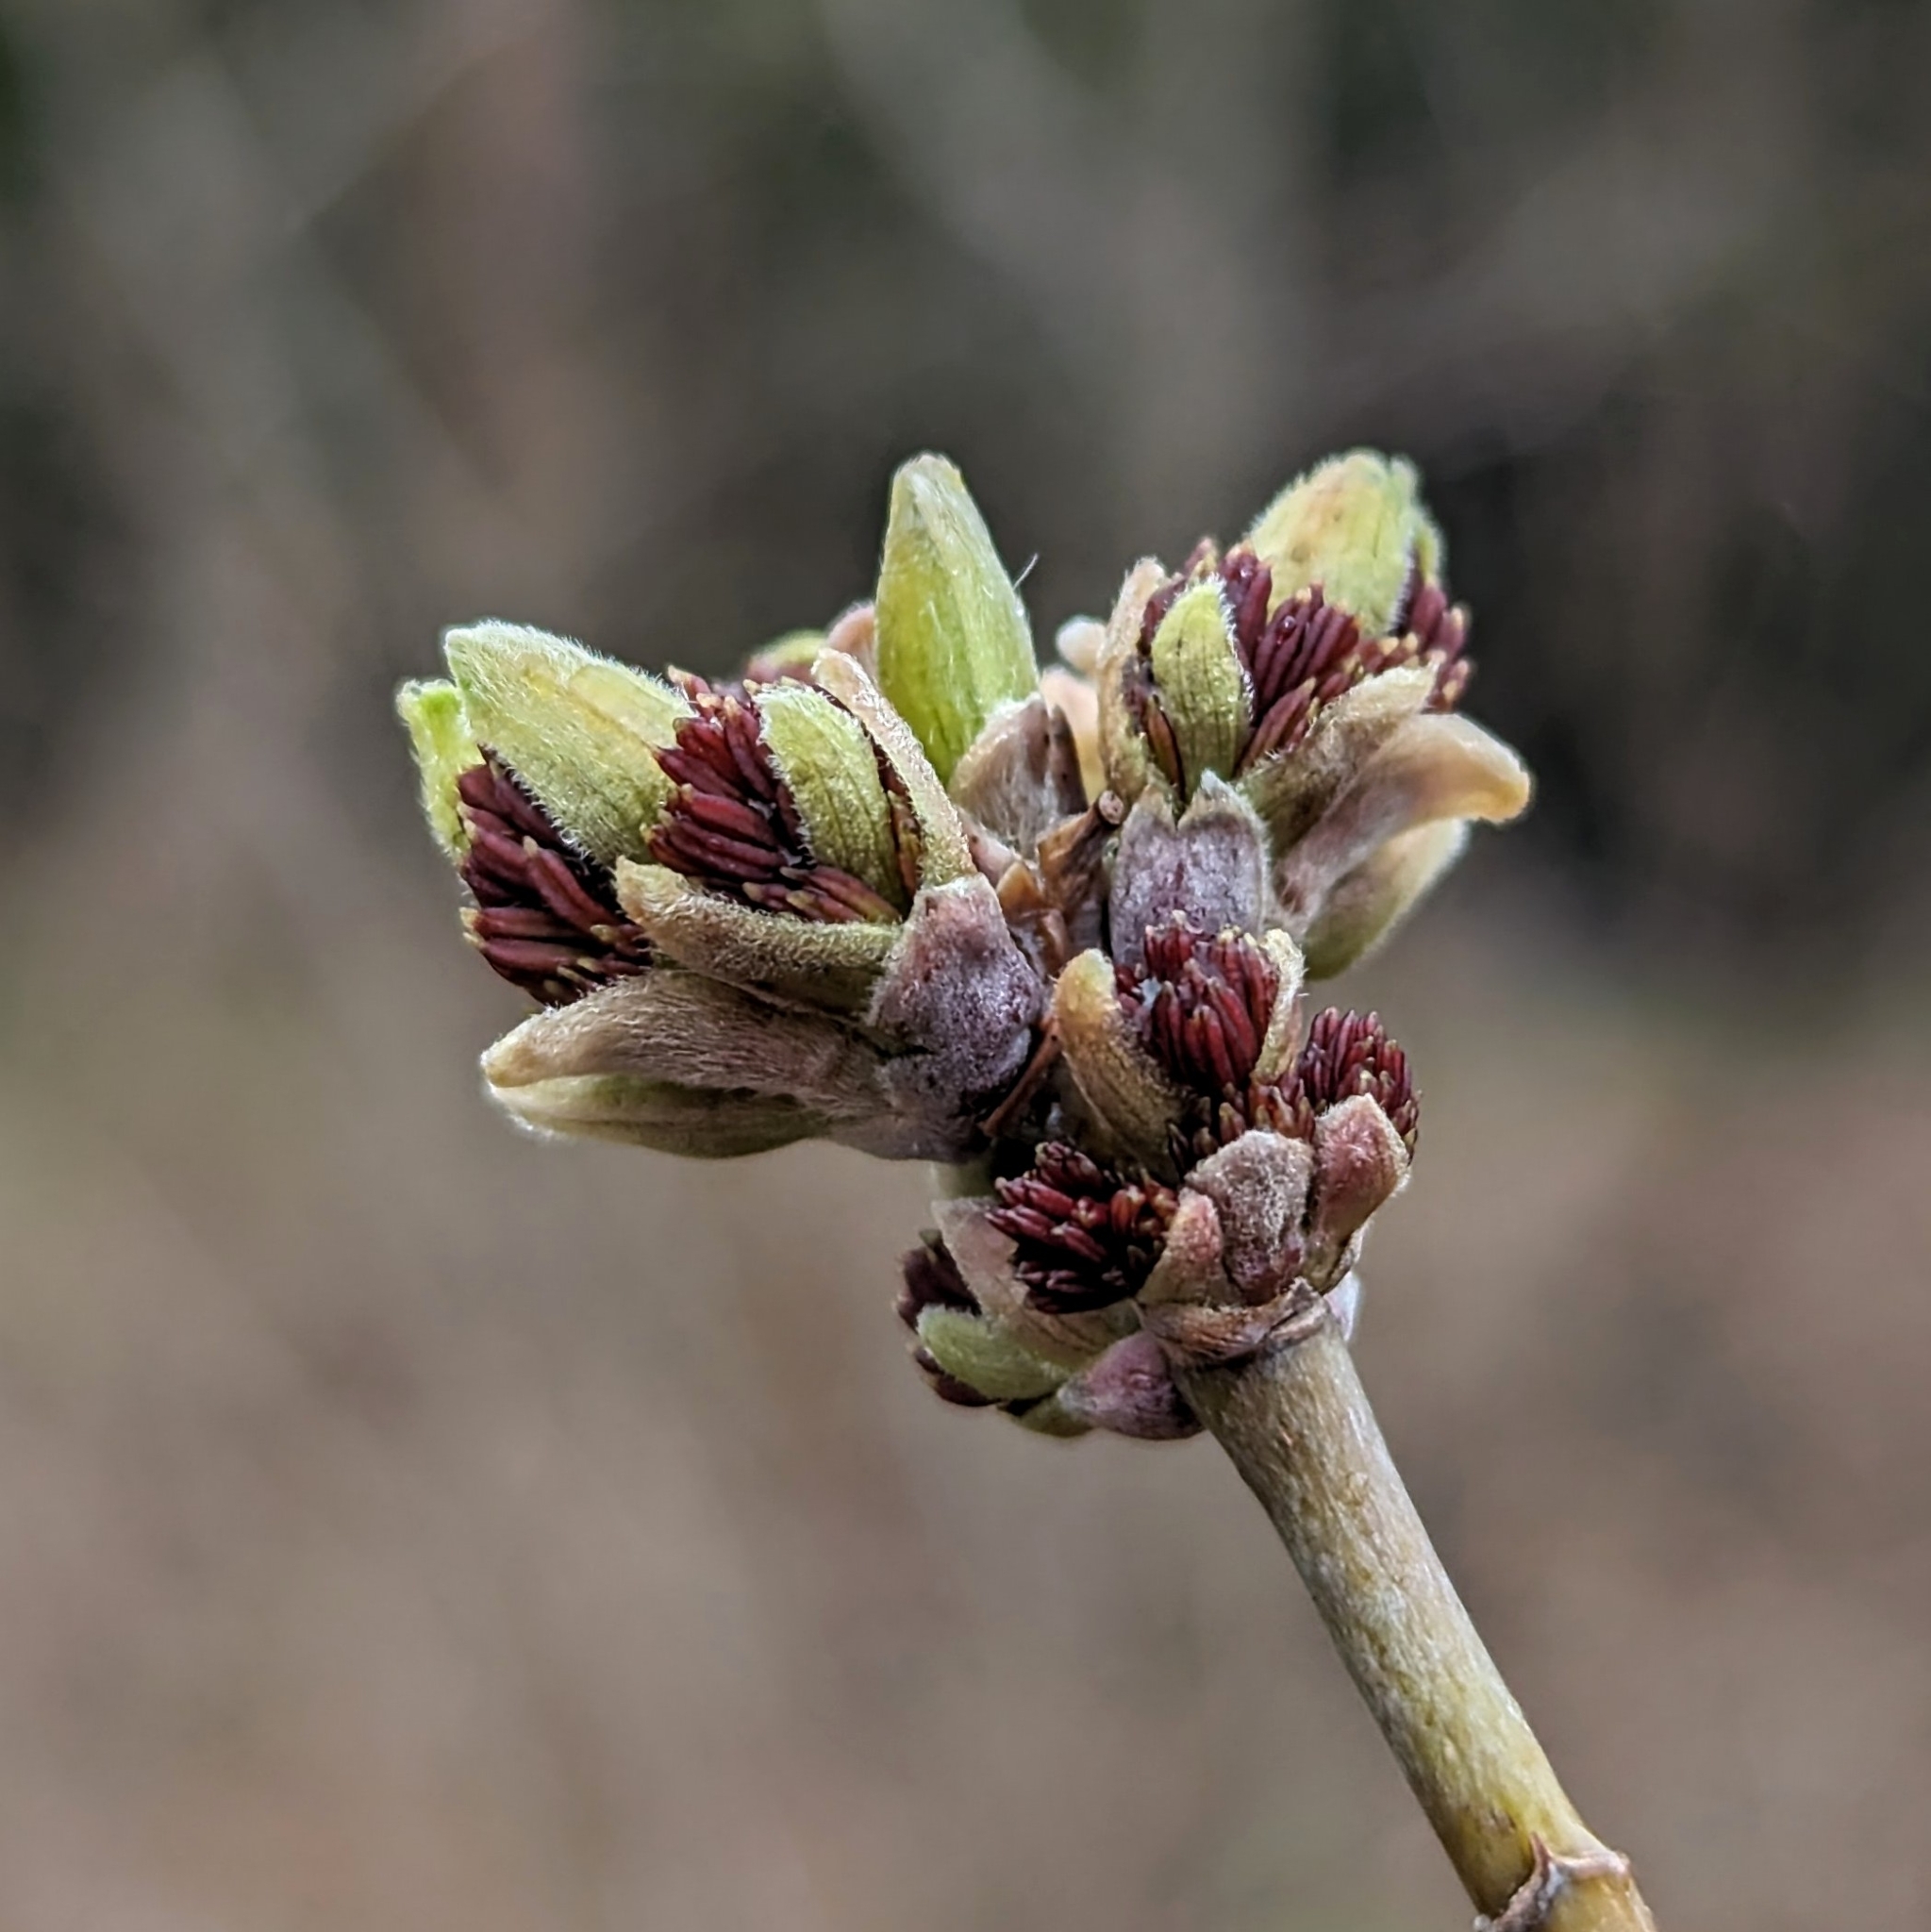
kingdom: Plantae
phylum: Tracheophyta
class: Magnoliopsida
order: Sapindales
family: Sapindaceae
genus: Acer
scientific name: Acer negundo
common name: Ashleaf maple
